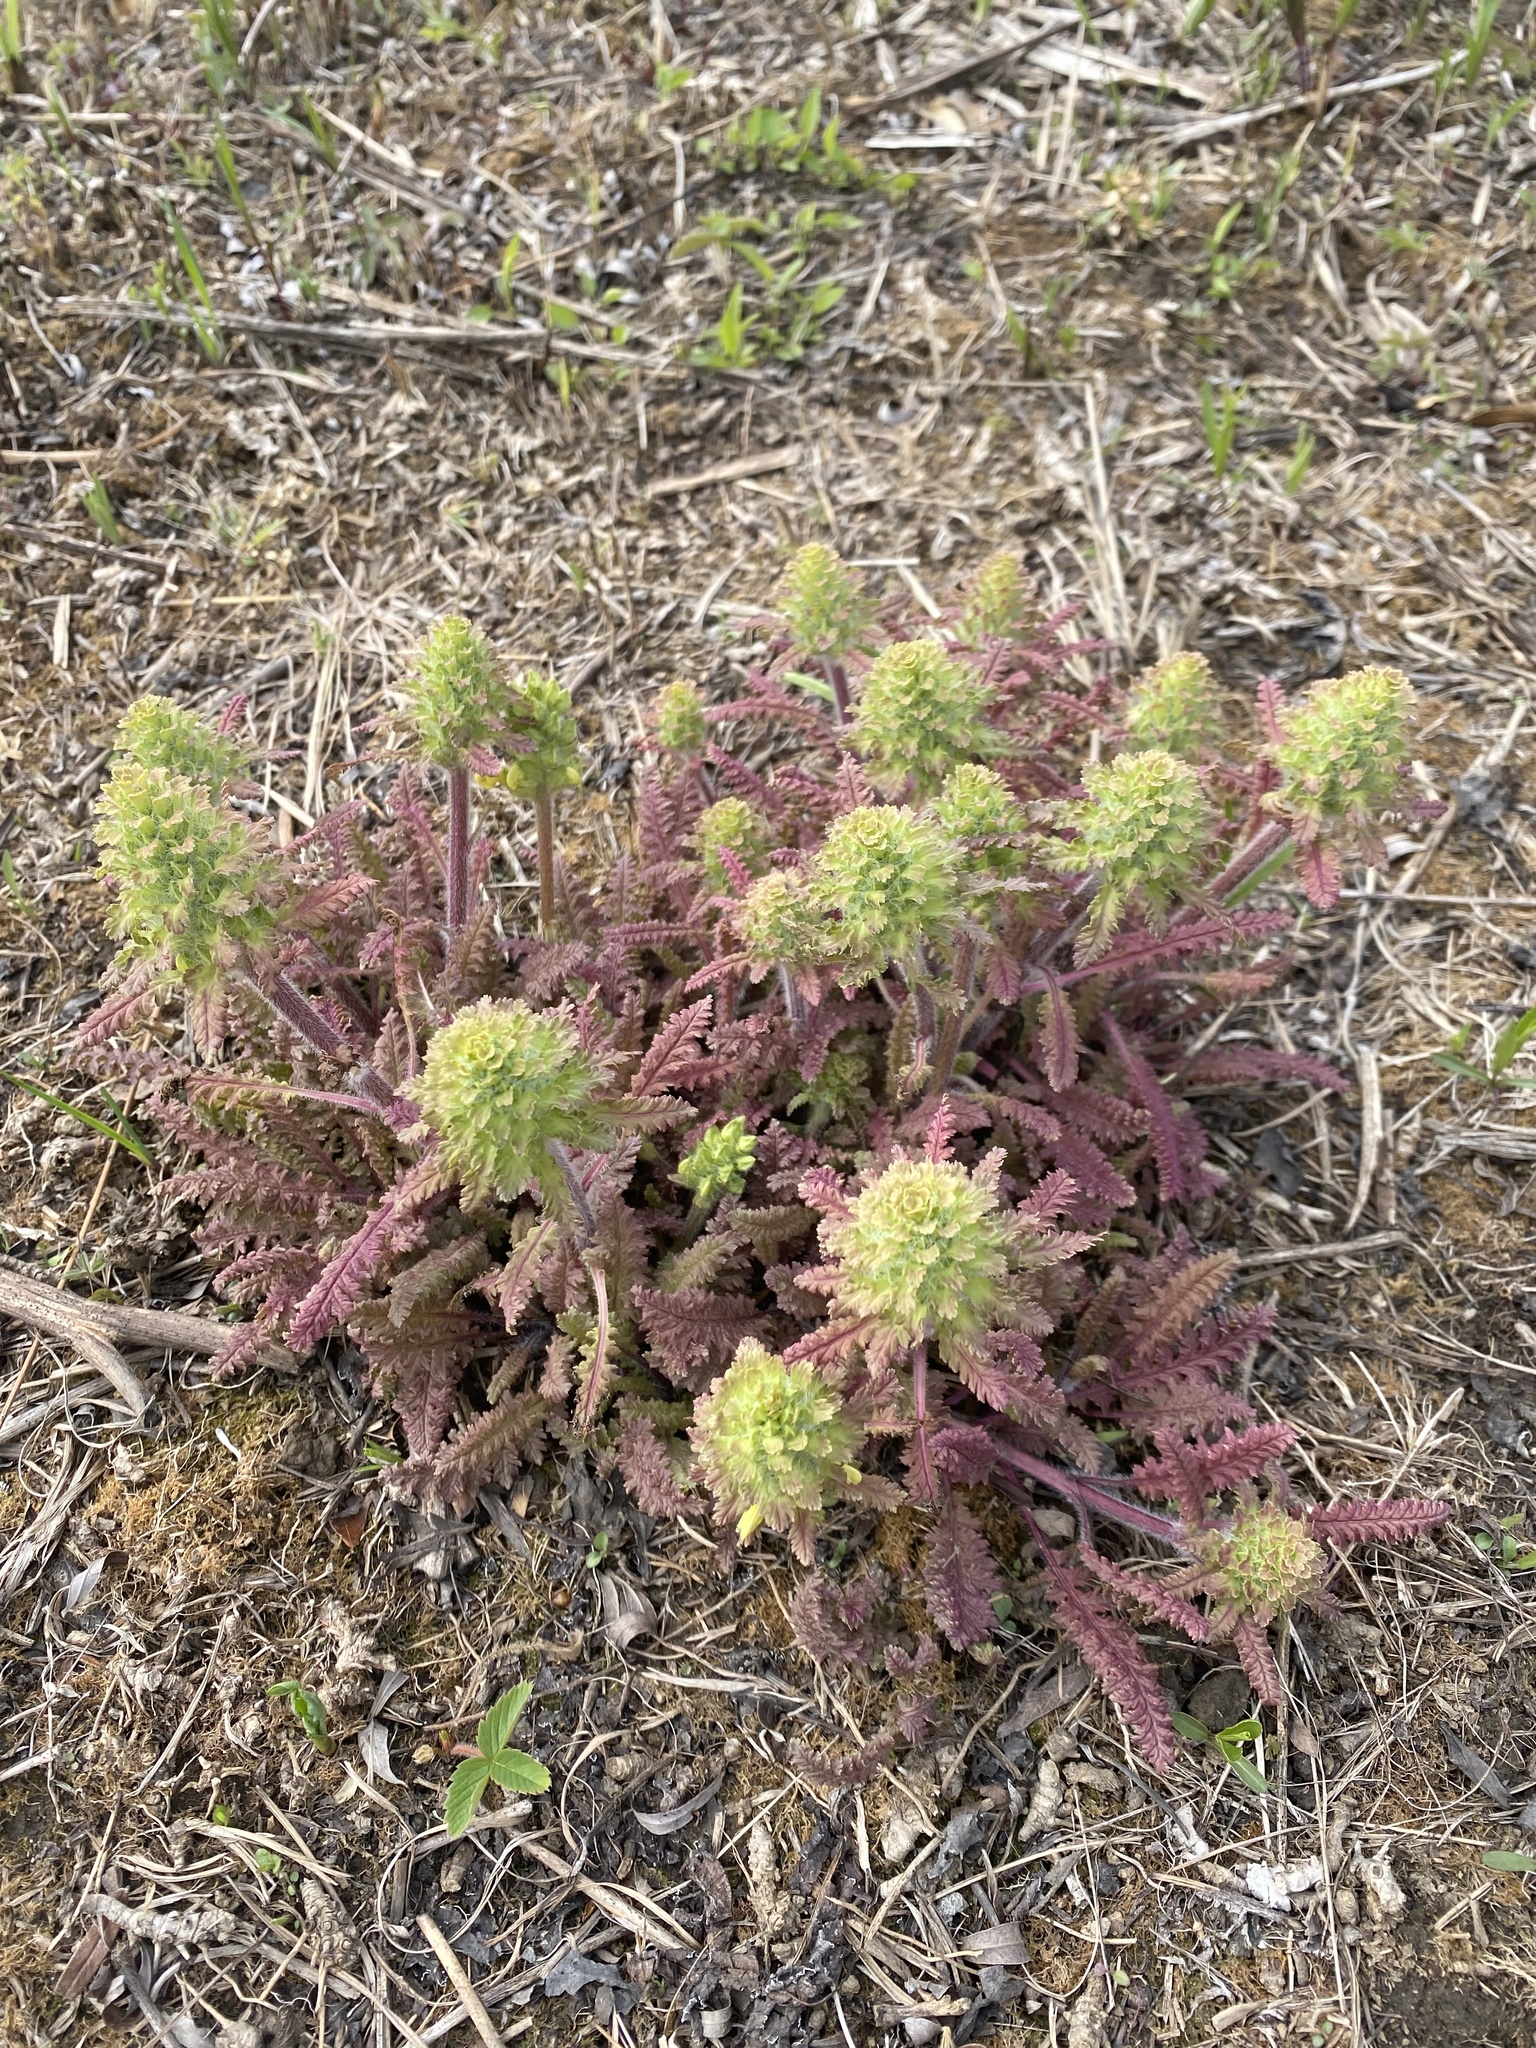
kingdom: Plantae
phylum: Tracheophyta
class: Magnoliopsida
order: Lamiales
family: Orobanchaceae
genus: Pedicularis
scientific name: Pedicularis canadensis
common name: Early lousewort
